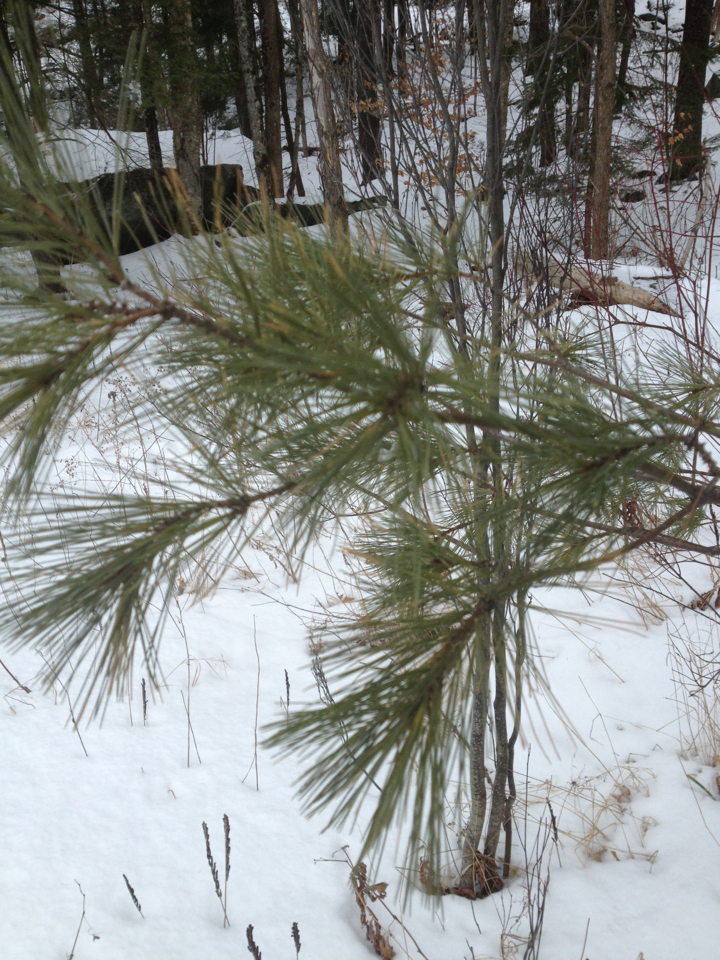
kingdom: Plantae
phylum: Tracheophyta
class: Pinopsida
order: Pinales
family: Pinaceae
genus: Pinus
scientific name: Pinus strobus
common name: Weymouth pine
